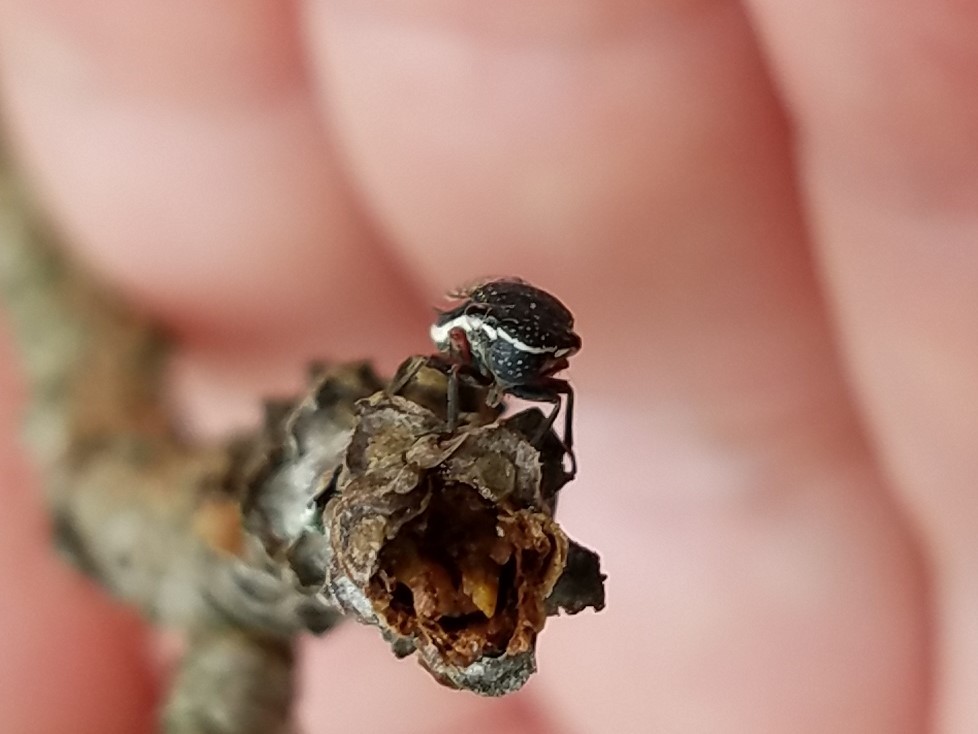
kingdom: Animalia
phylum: Arthropoda
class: Insecta
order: Hemiptera
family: Cicadellidae
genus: Cuerna
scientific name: Cuerna costalis
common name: Lateral-lined sharpshooter
